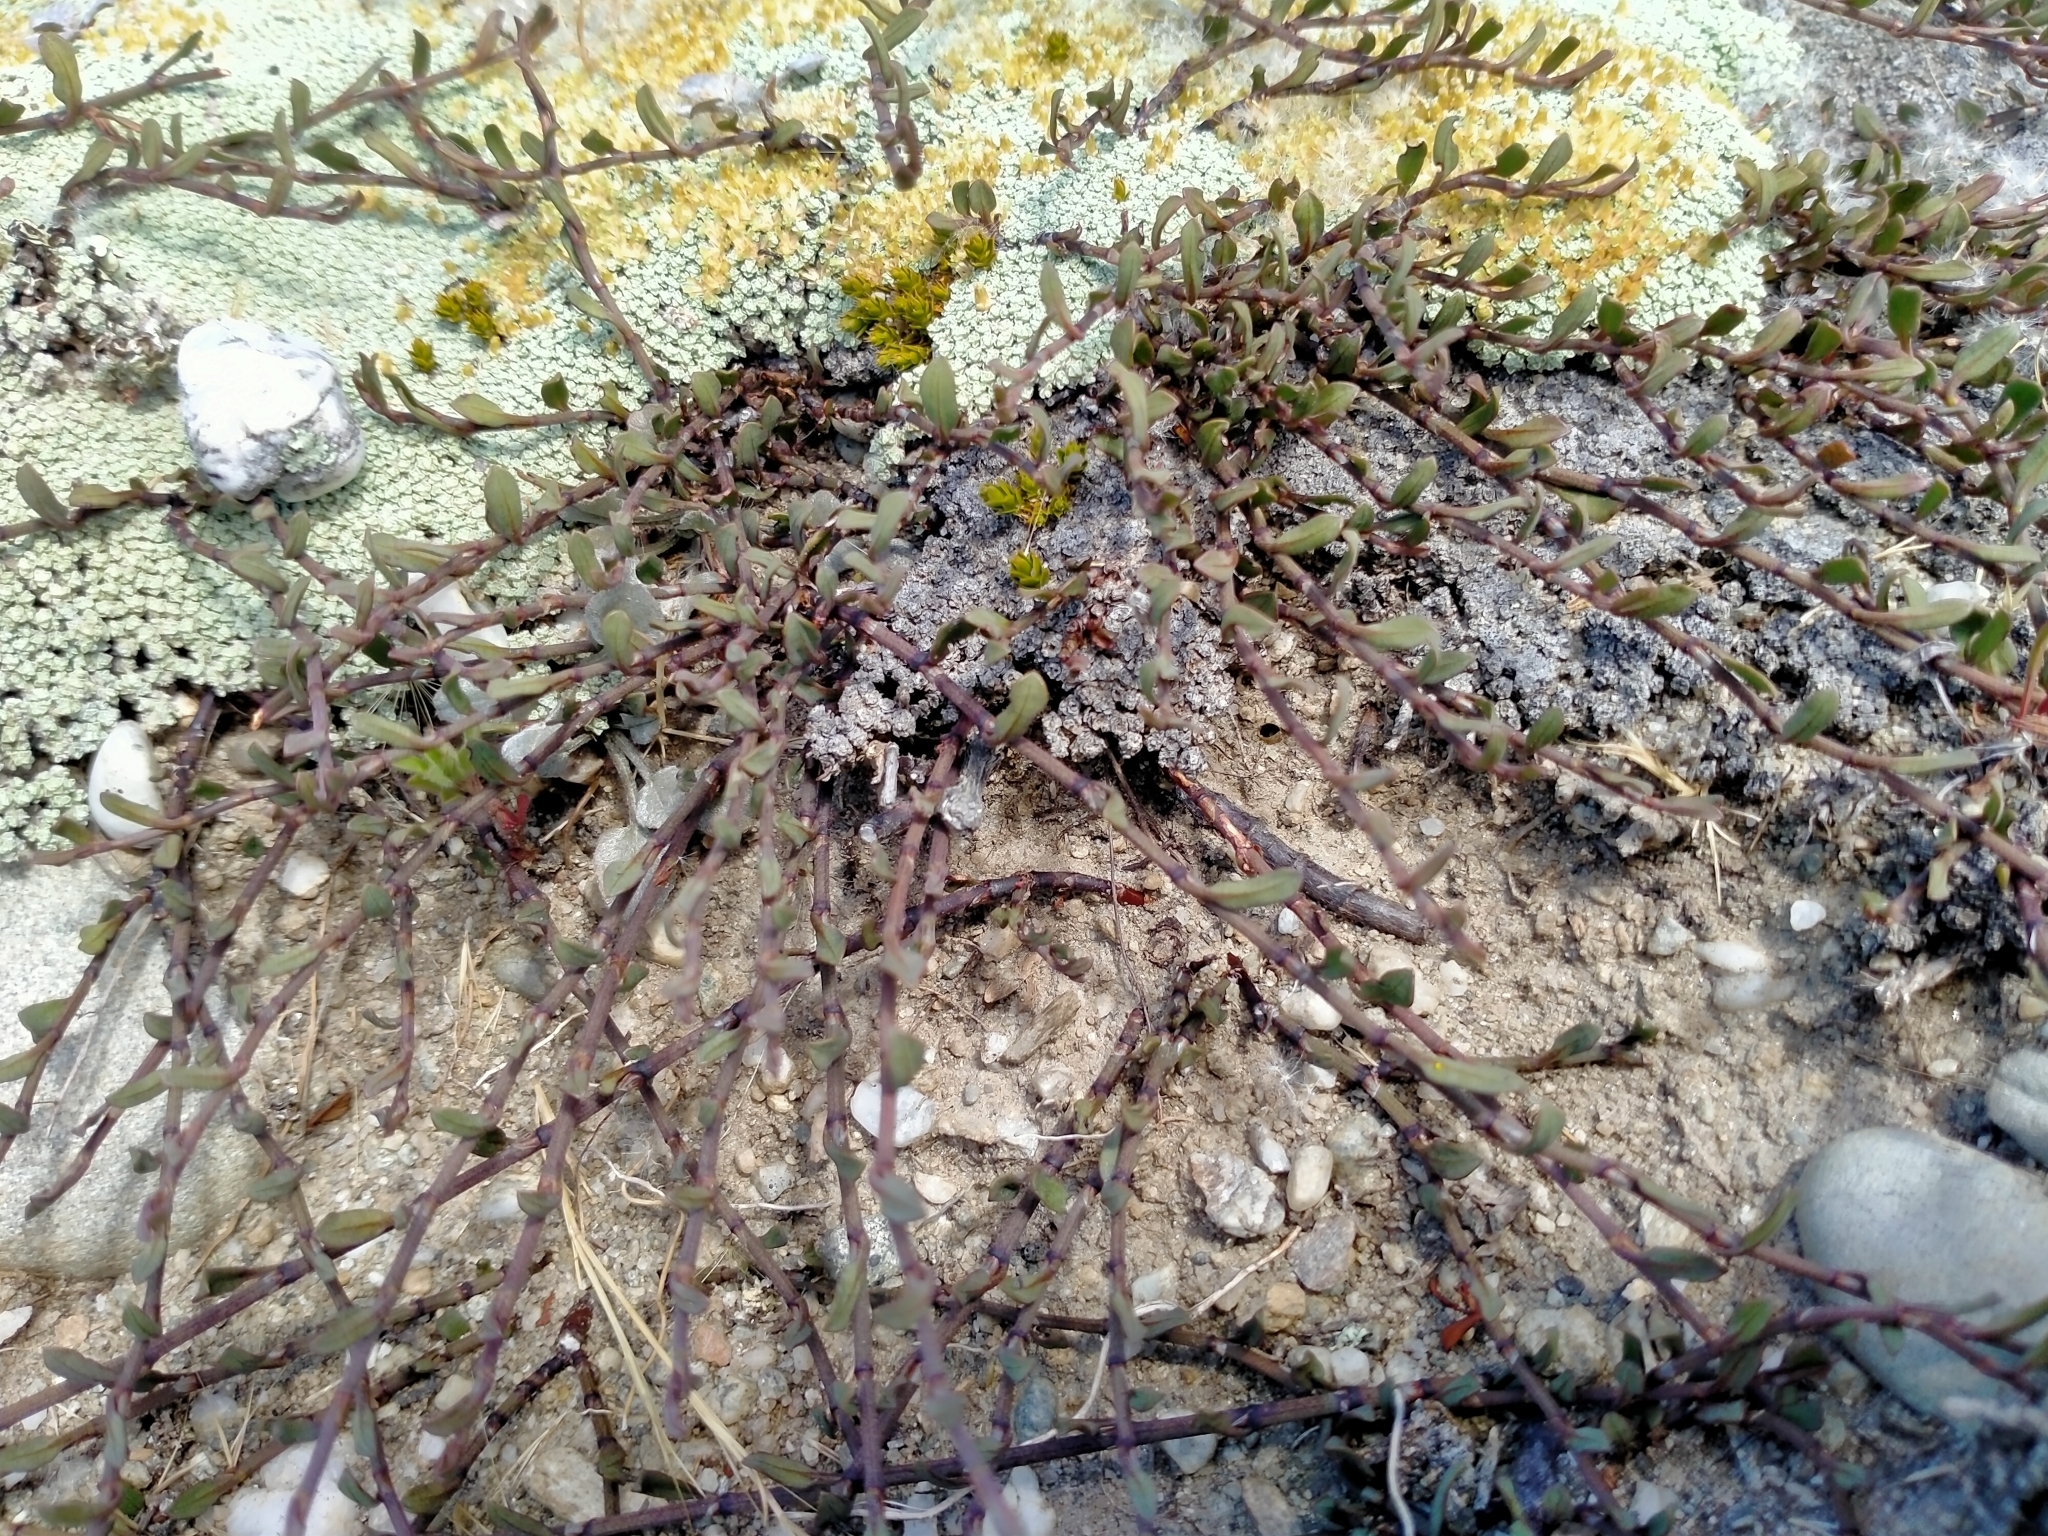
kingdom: Plantae
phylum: Tracheophyta
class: Magnoliopsida
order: Caryophyllales
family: Polygonaceae
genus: Muehlenbeckia
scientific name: Muehlenbeckia
